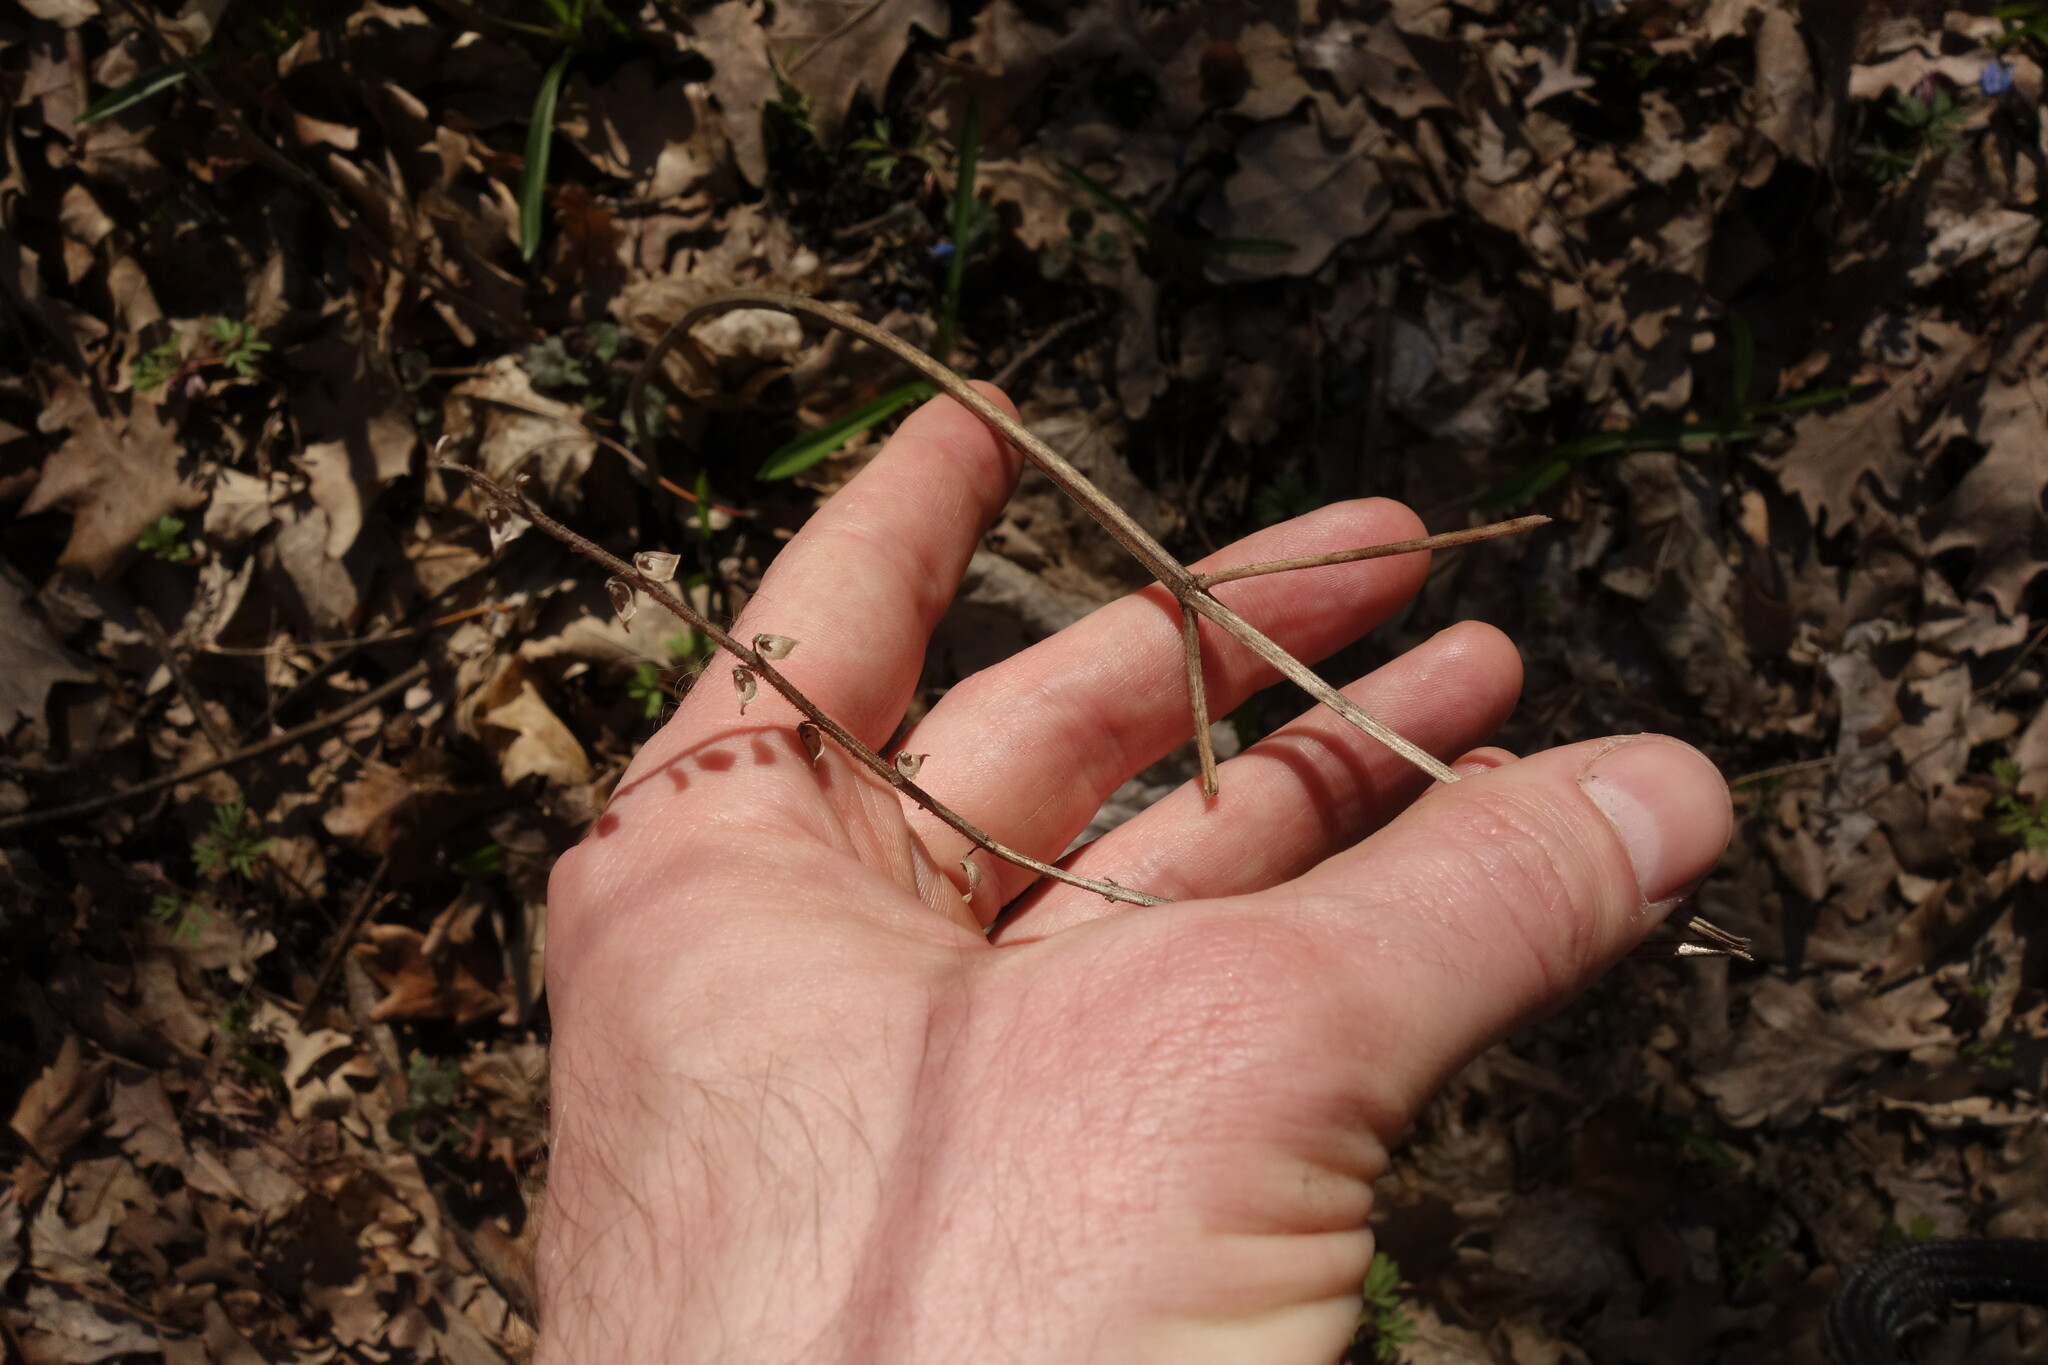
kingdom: Plantae
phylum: Tracheophyta
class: Magnoliopsida
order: Lamiales
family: Lamiaceae
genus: Scutellaria
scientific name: Scutellaria altissima
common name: Somerset skullcap
